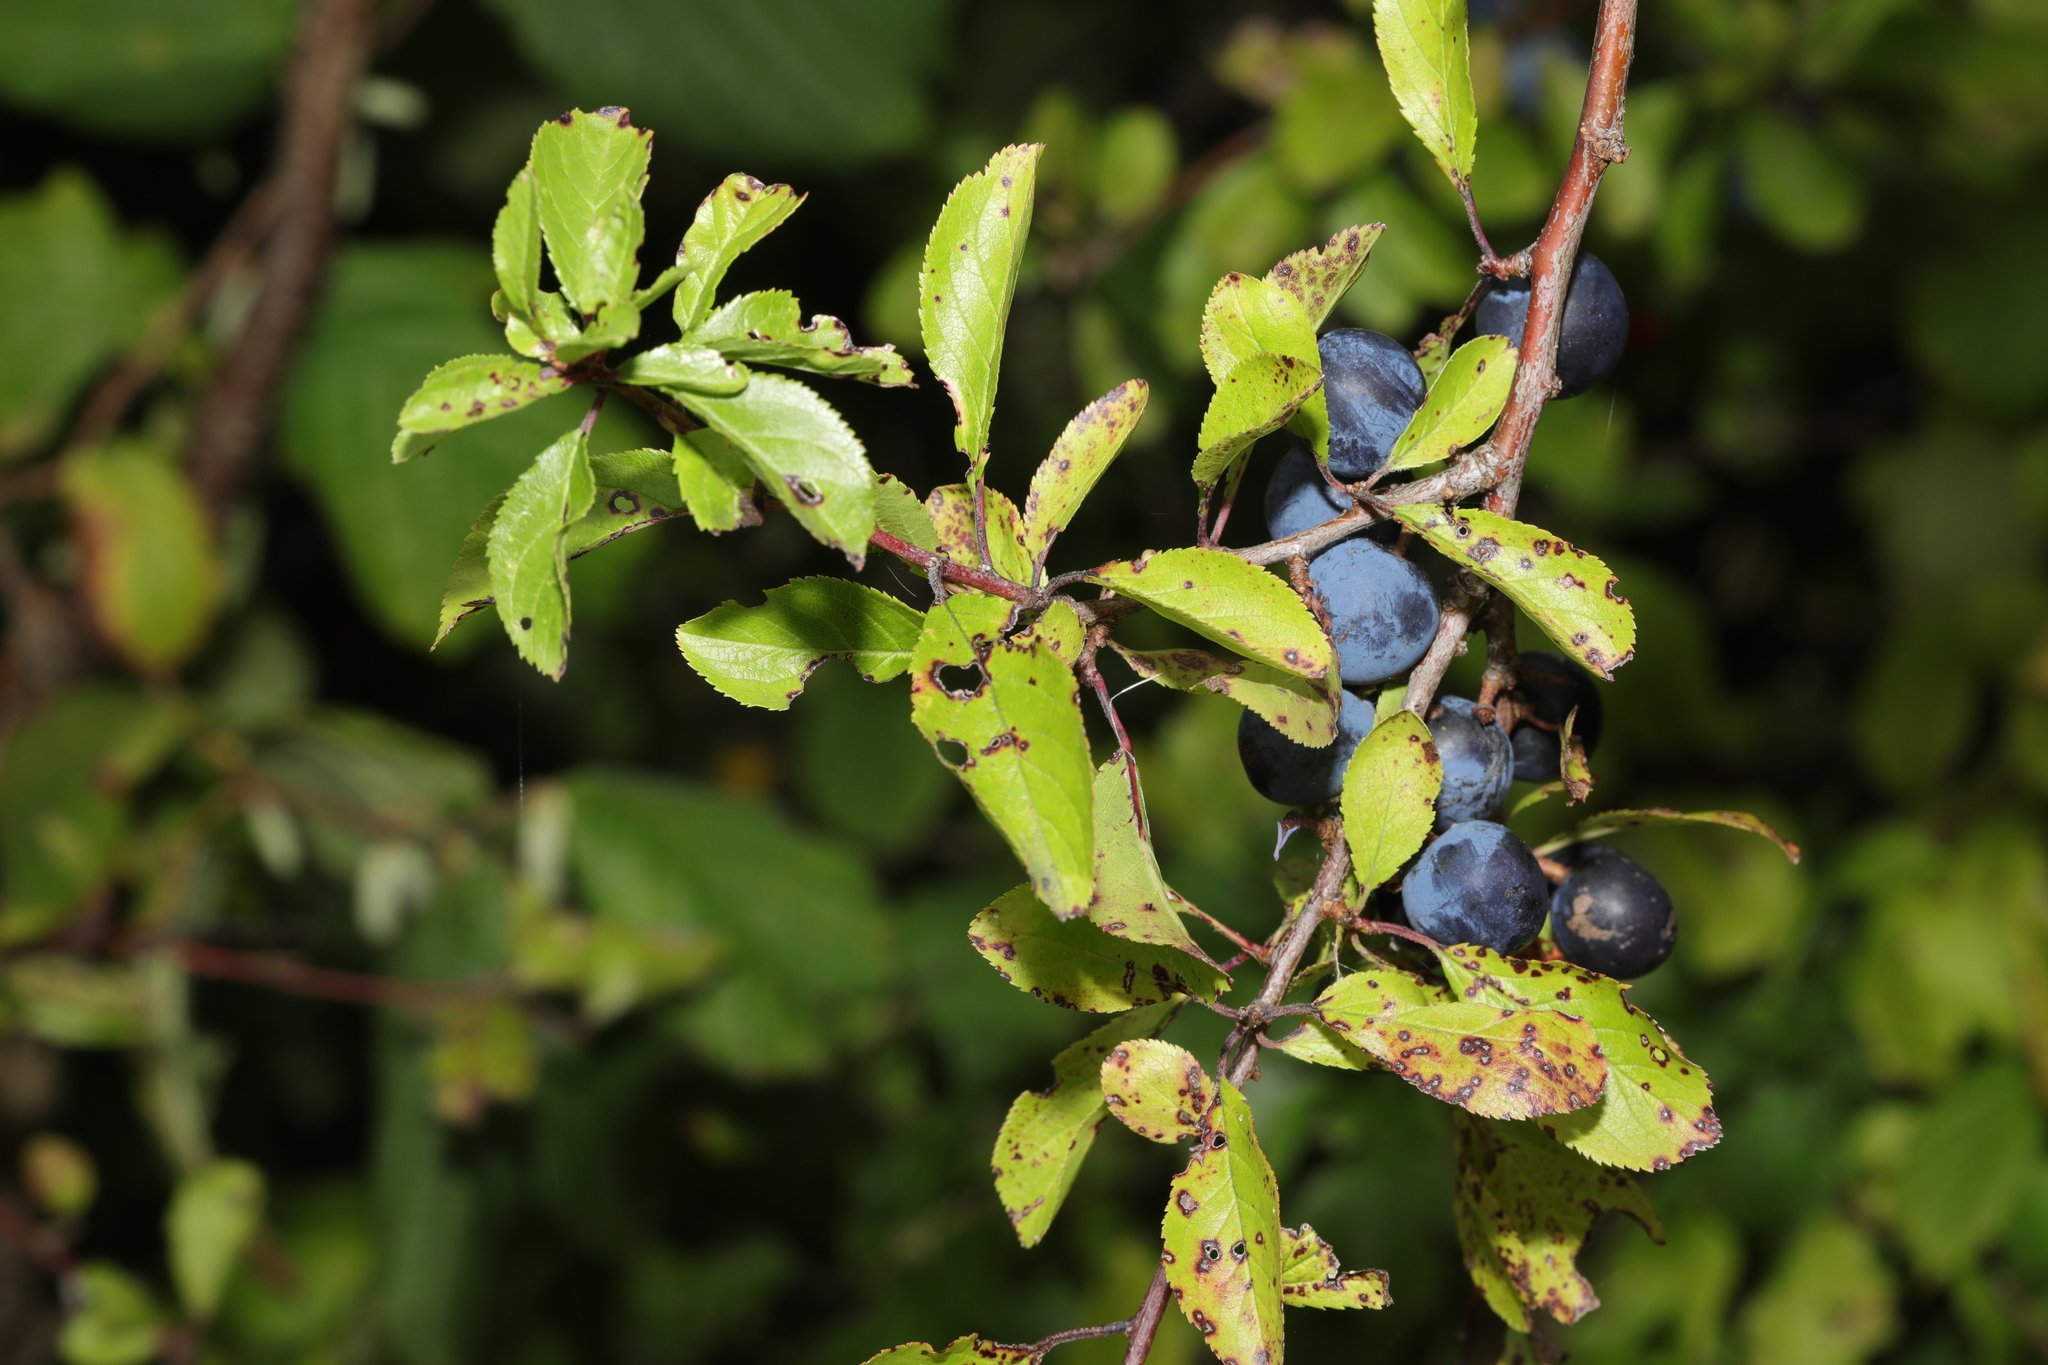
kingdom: Plantae
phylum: Tracheophyta
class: Magnoliopsida
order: Rosales
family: Rosaceae
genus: Prunus
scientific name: Prunus spinosa
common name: Blackthorn
